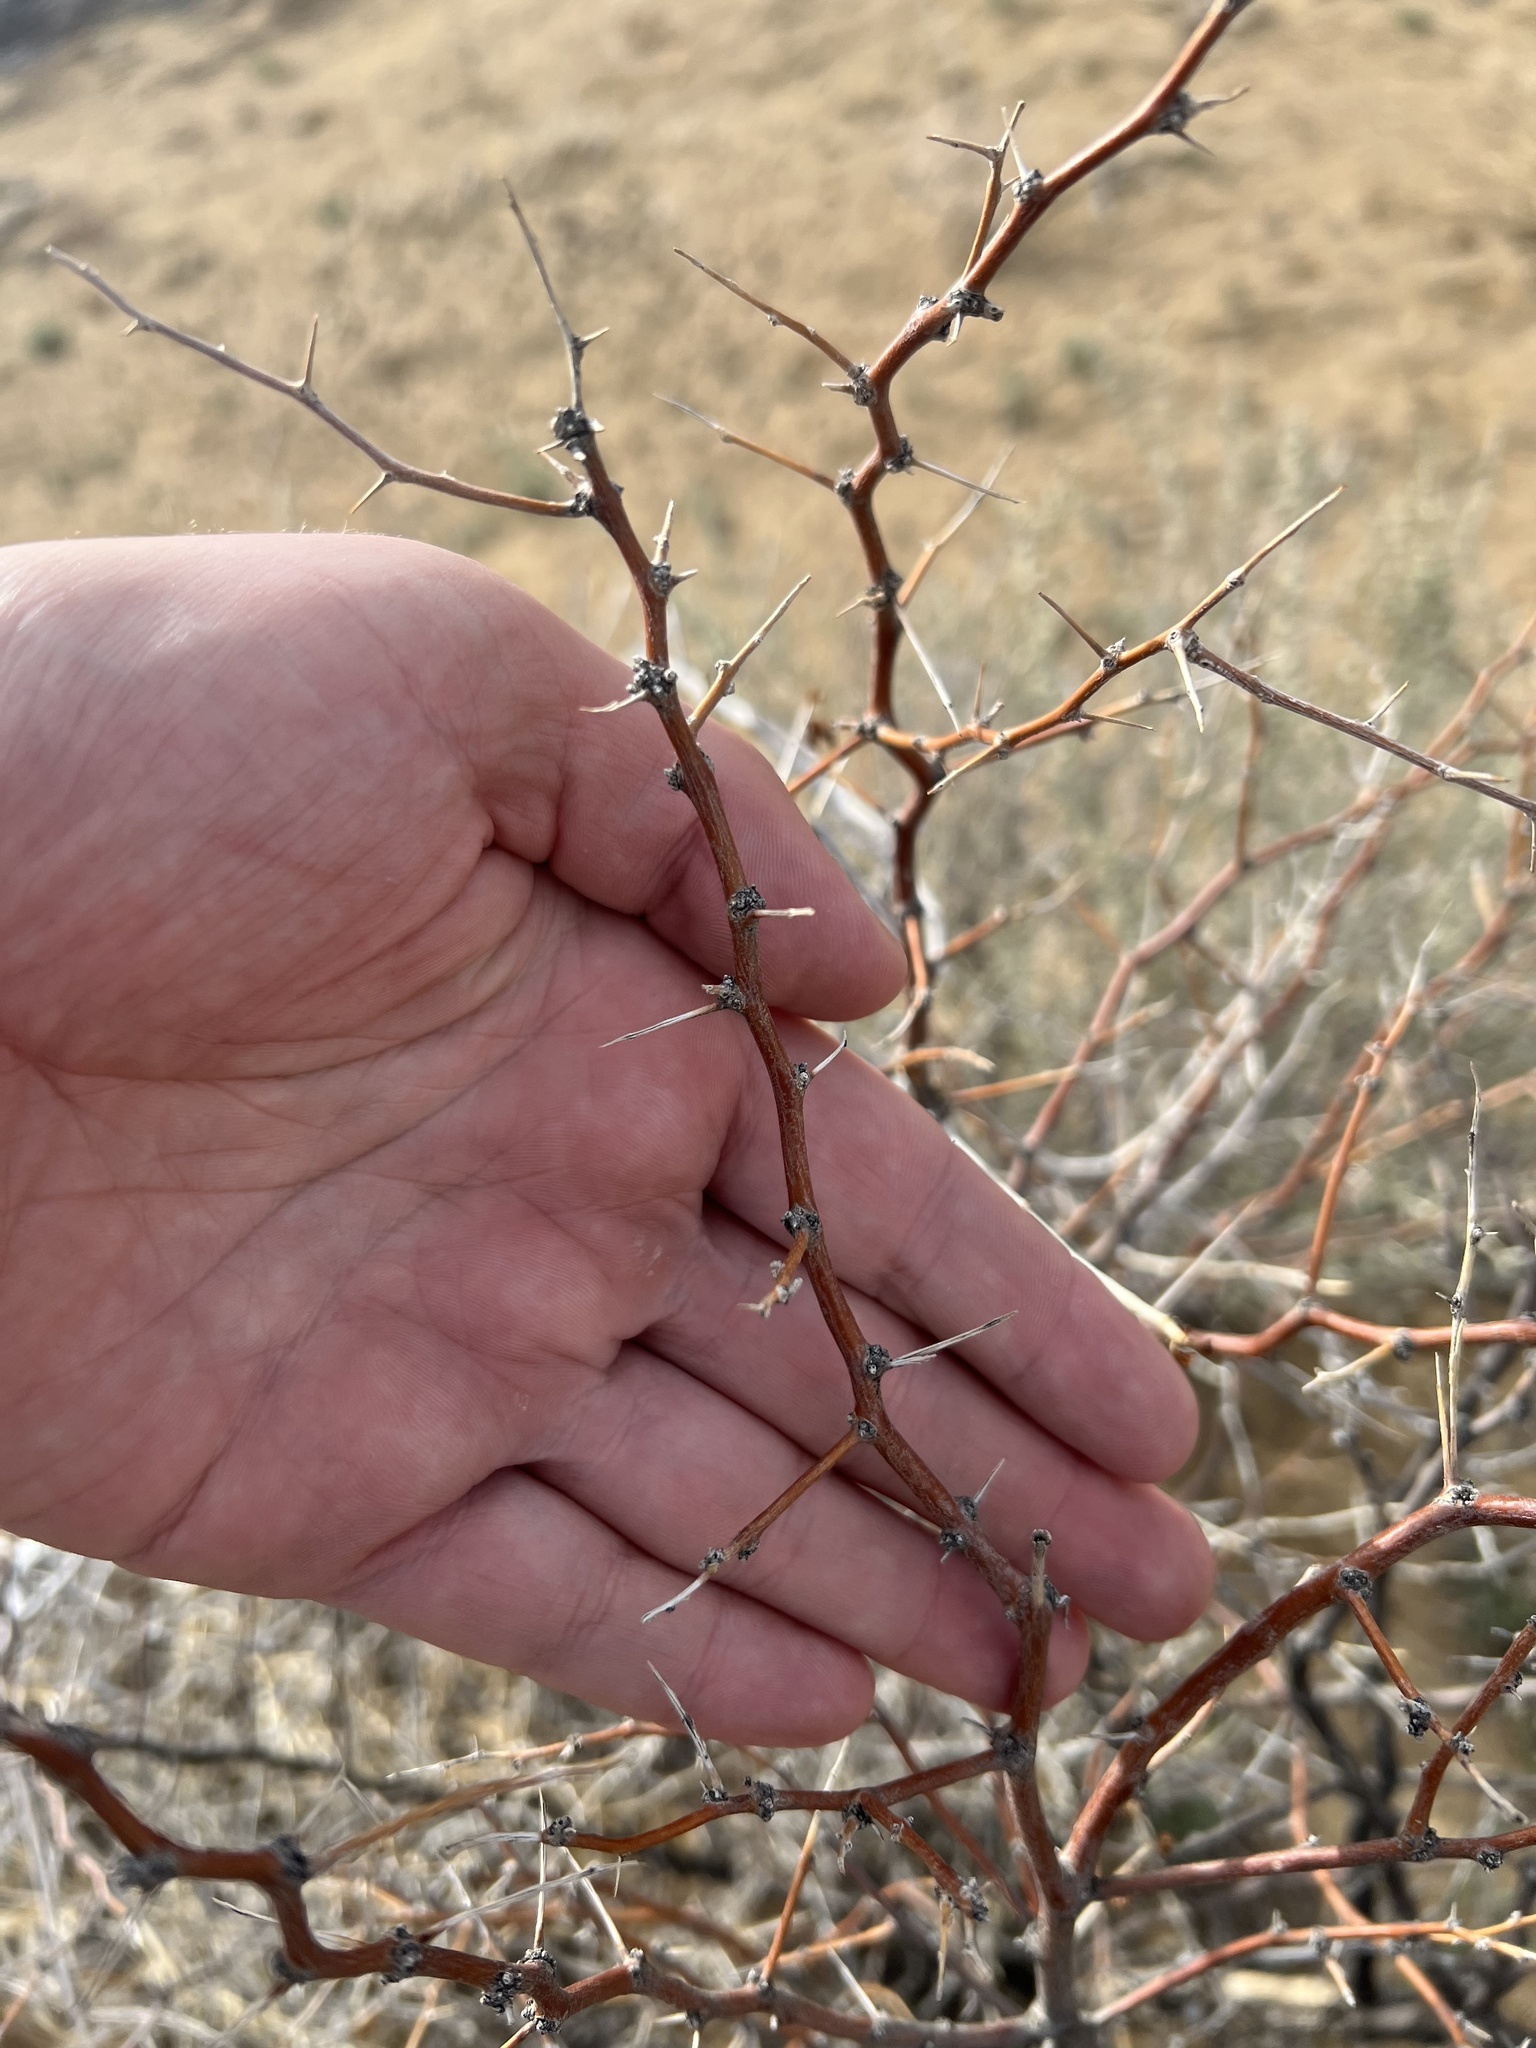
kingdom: Plantae
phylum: Tracheophyta
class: Magnoliopsida
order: Solanales
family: Solanaceae
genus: Lycium
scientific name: Lycium pallidum
